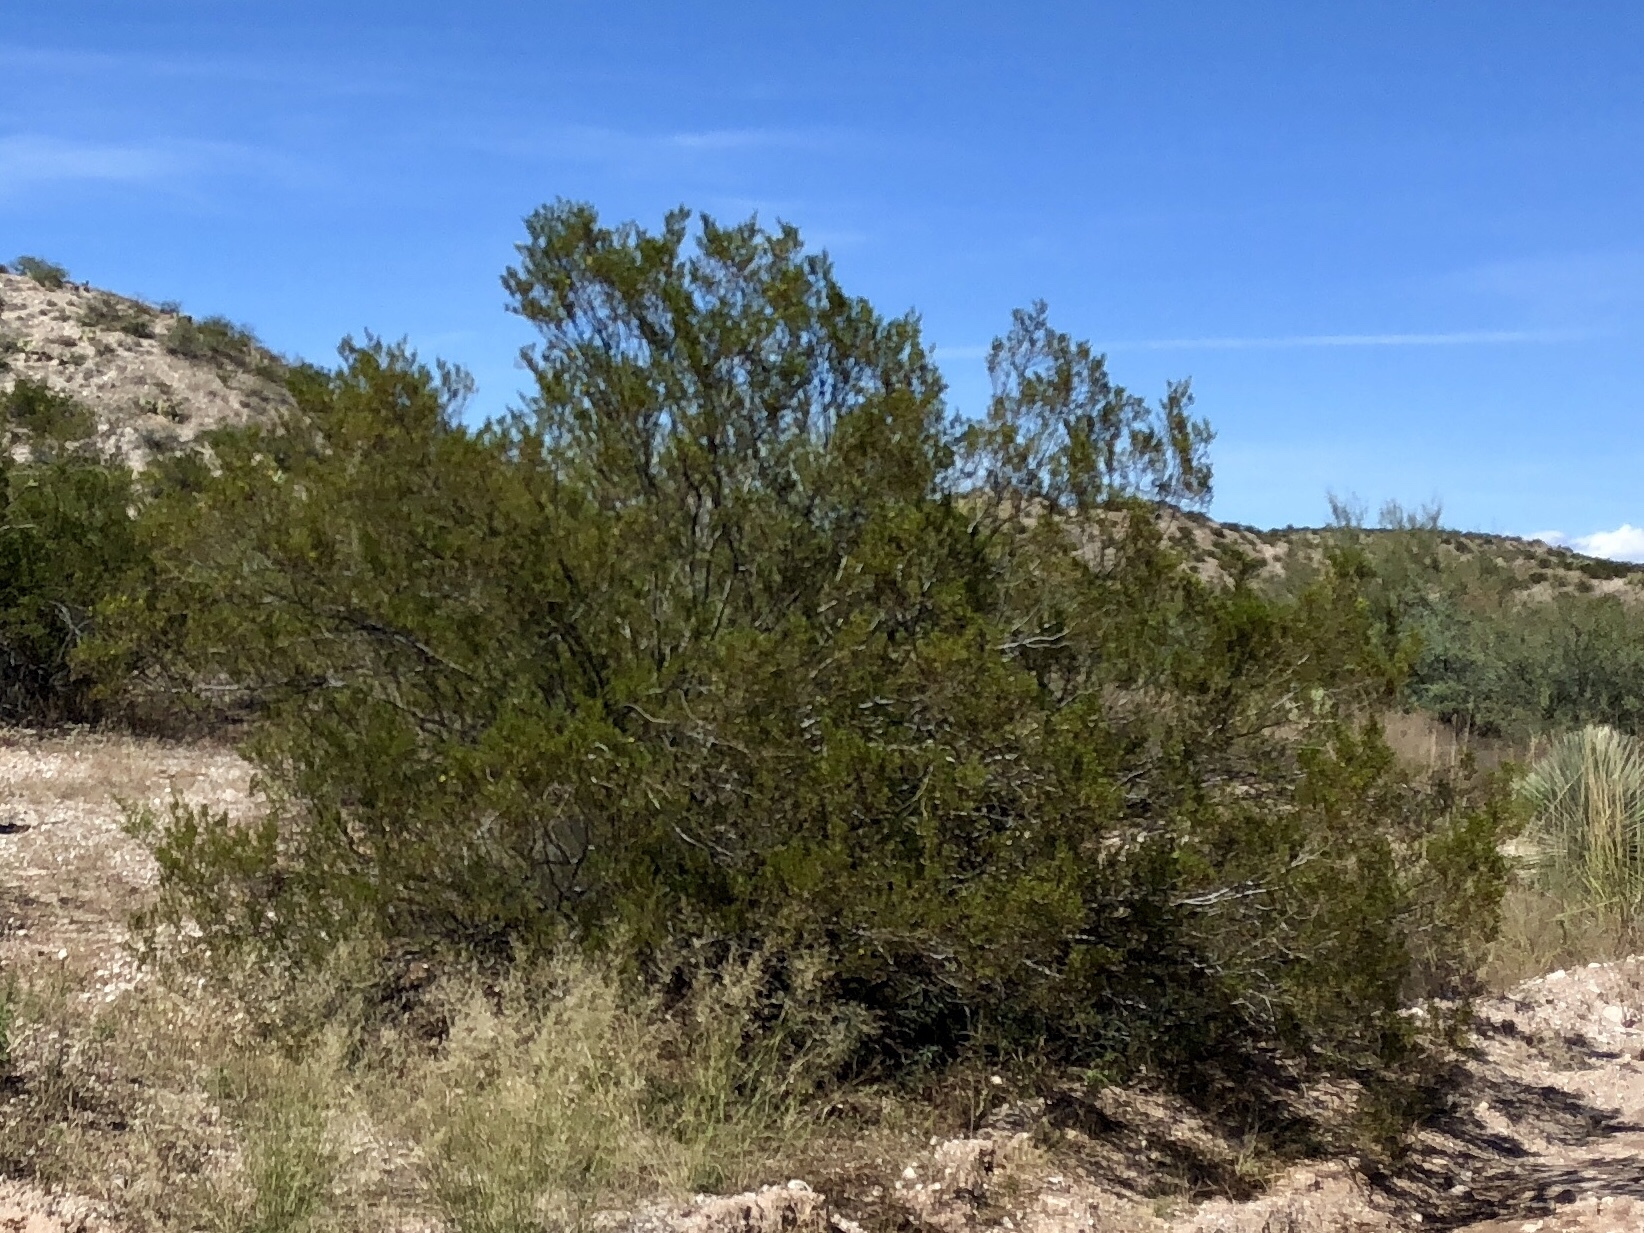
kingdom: Plantae
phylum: Tracheophyta
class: Magnoliopsida
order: Zygophyllales
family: Zygophyllaceae
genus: Larrea
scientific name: Larrea tridentata
